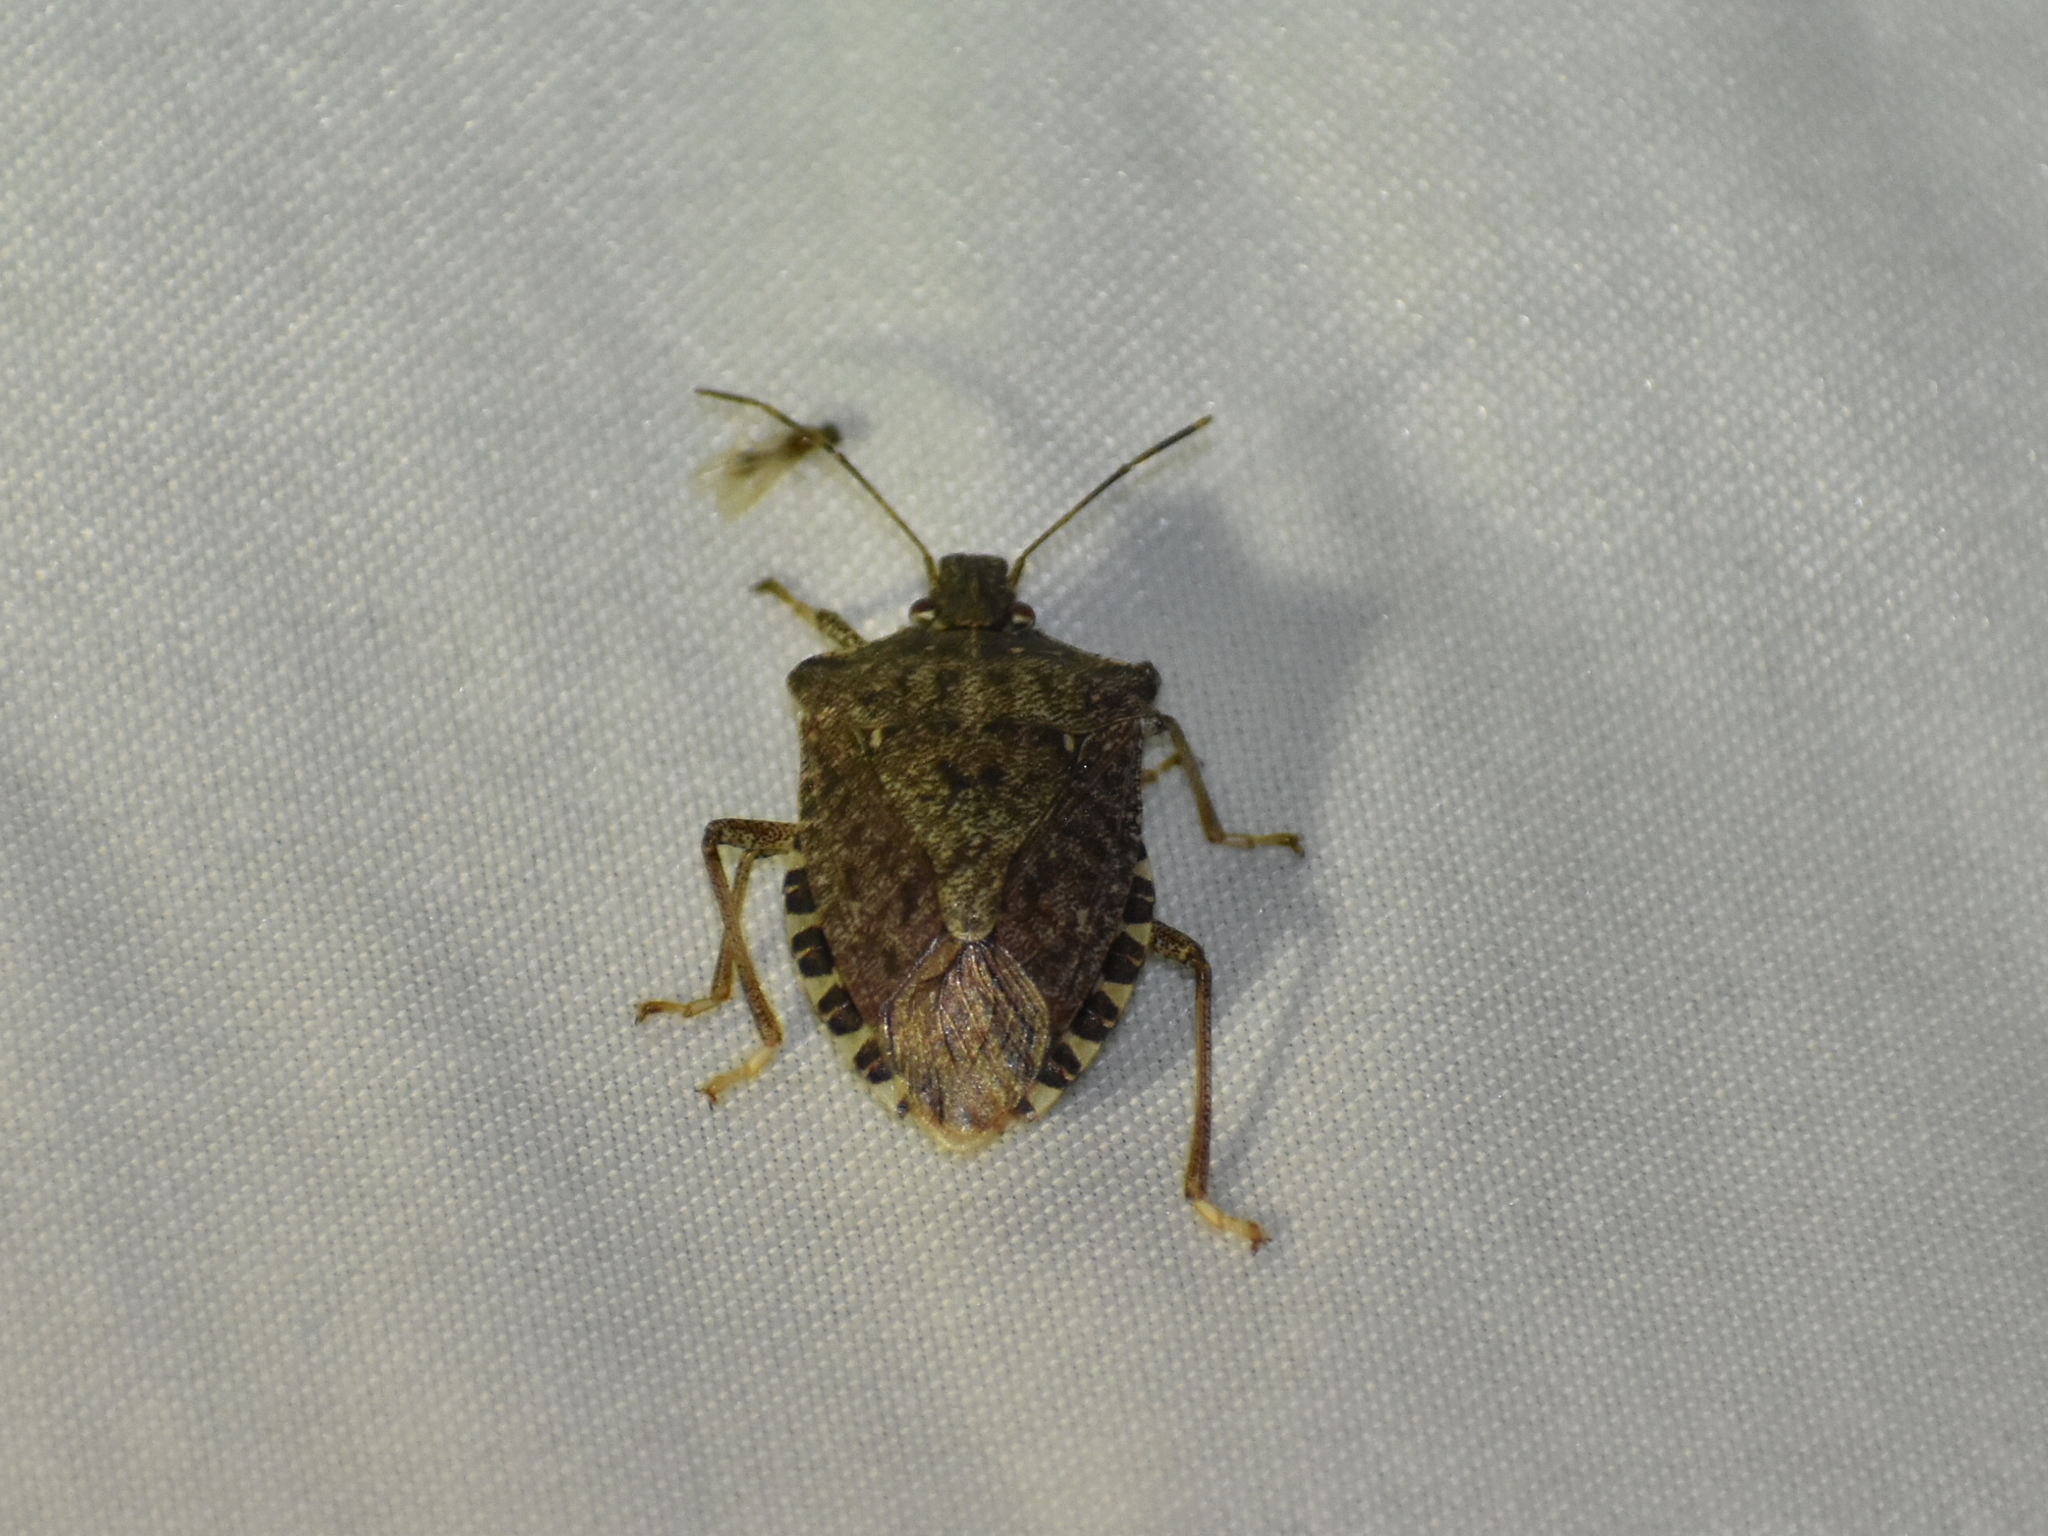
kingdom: Animalia
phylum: Arthropoda
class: Insecta
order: Hemiptera
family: Pentatomidae
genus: Halyomorpha
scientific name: Halyomorpha halys
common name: Brown marmorated stink bug
